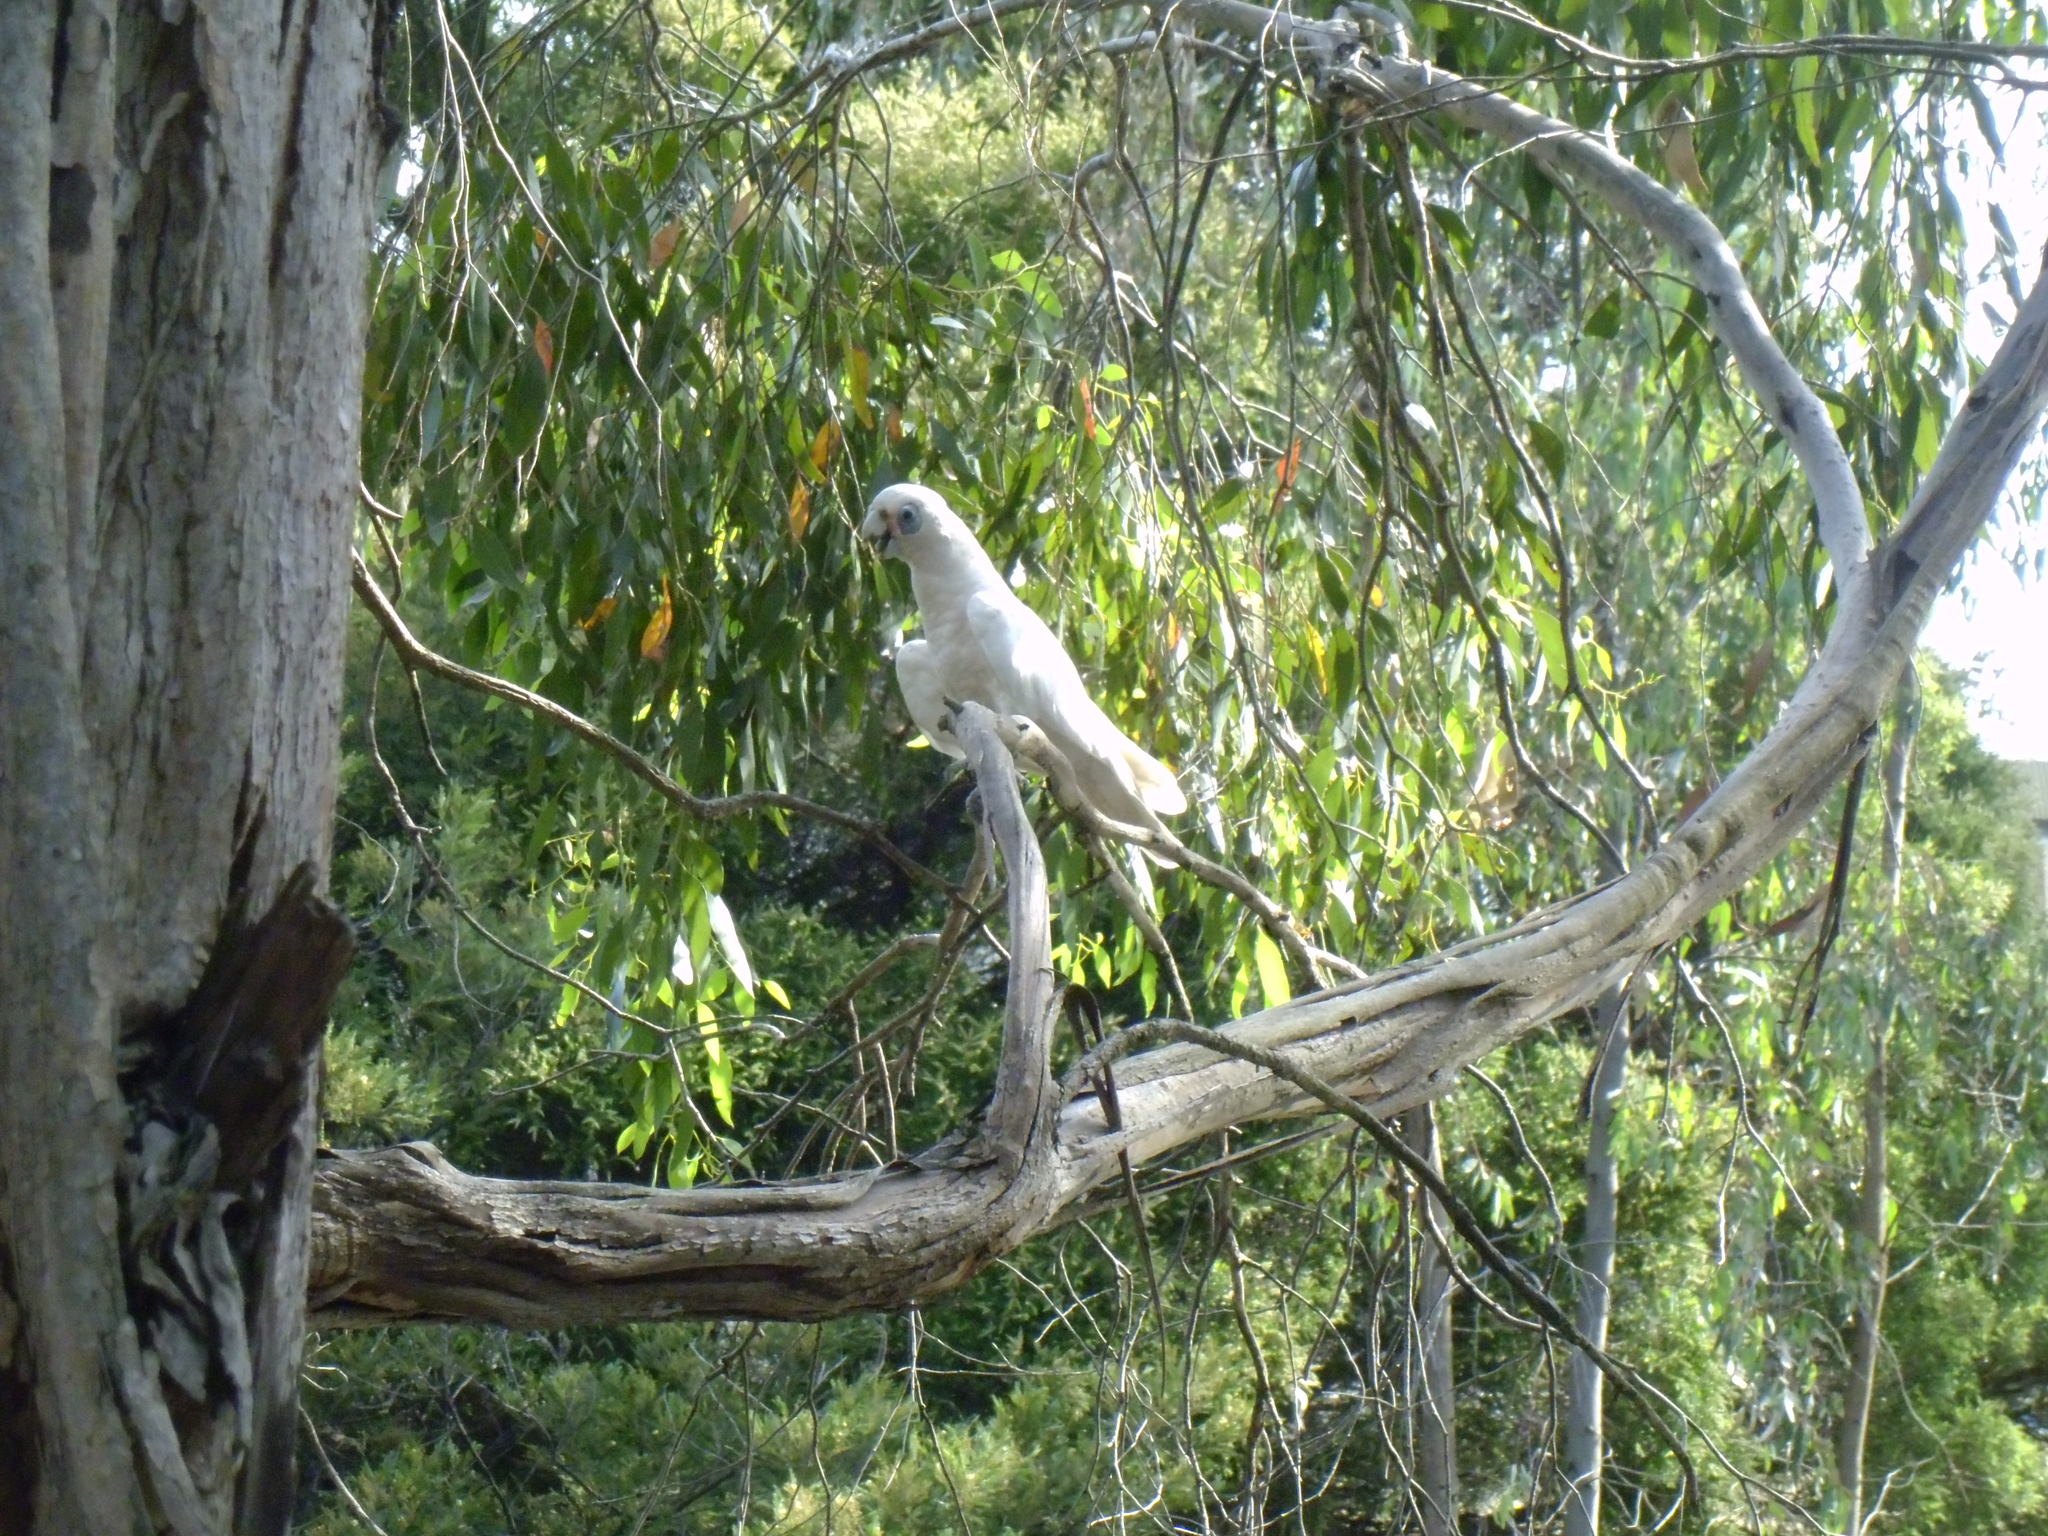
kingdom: Animalia
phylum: Chordata
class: Aves
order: Psittaciformes
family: Psittacidae
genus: Cacatua
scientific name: Cacatua sanguinea
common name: Little corella
